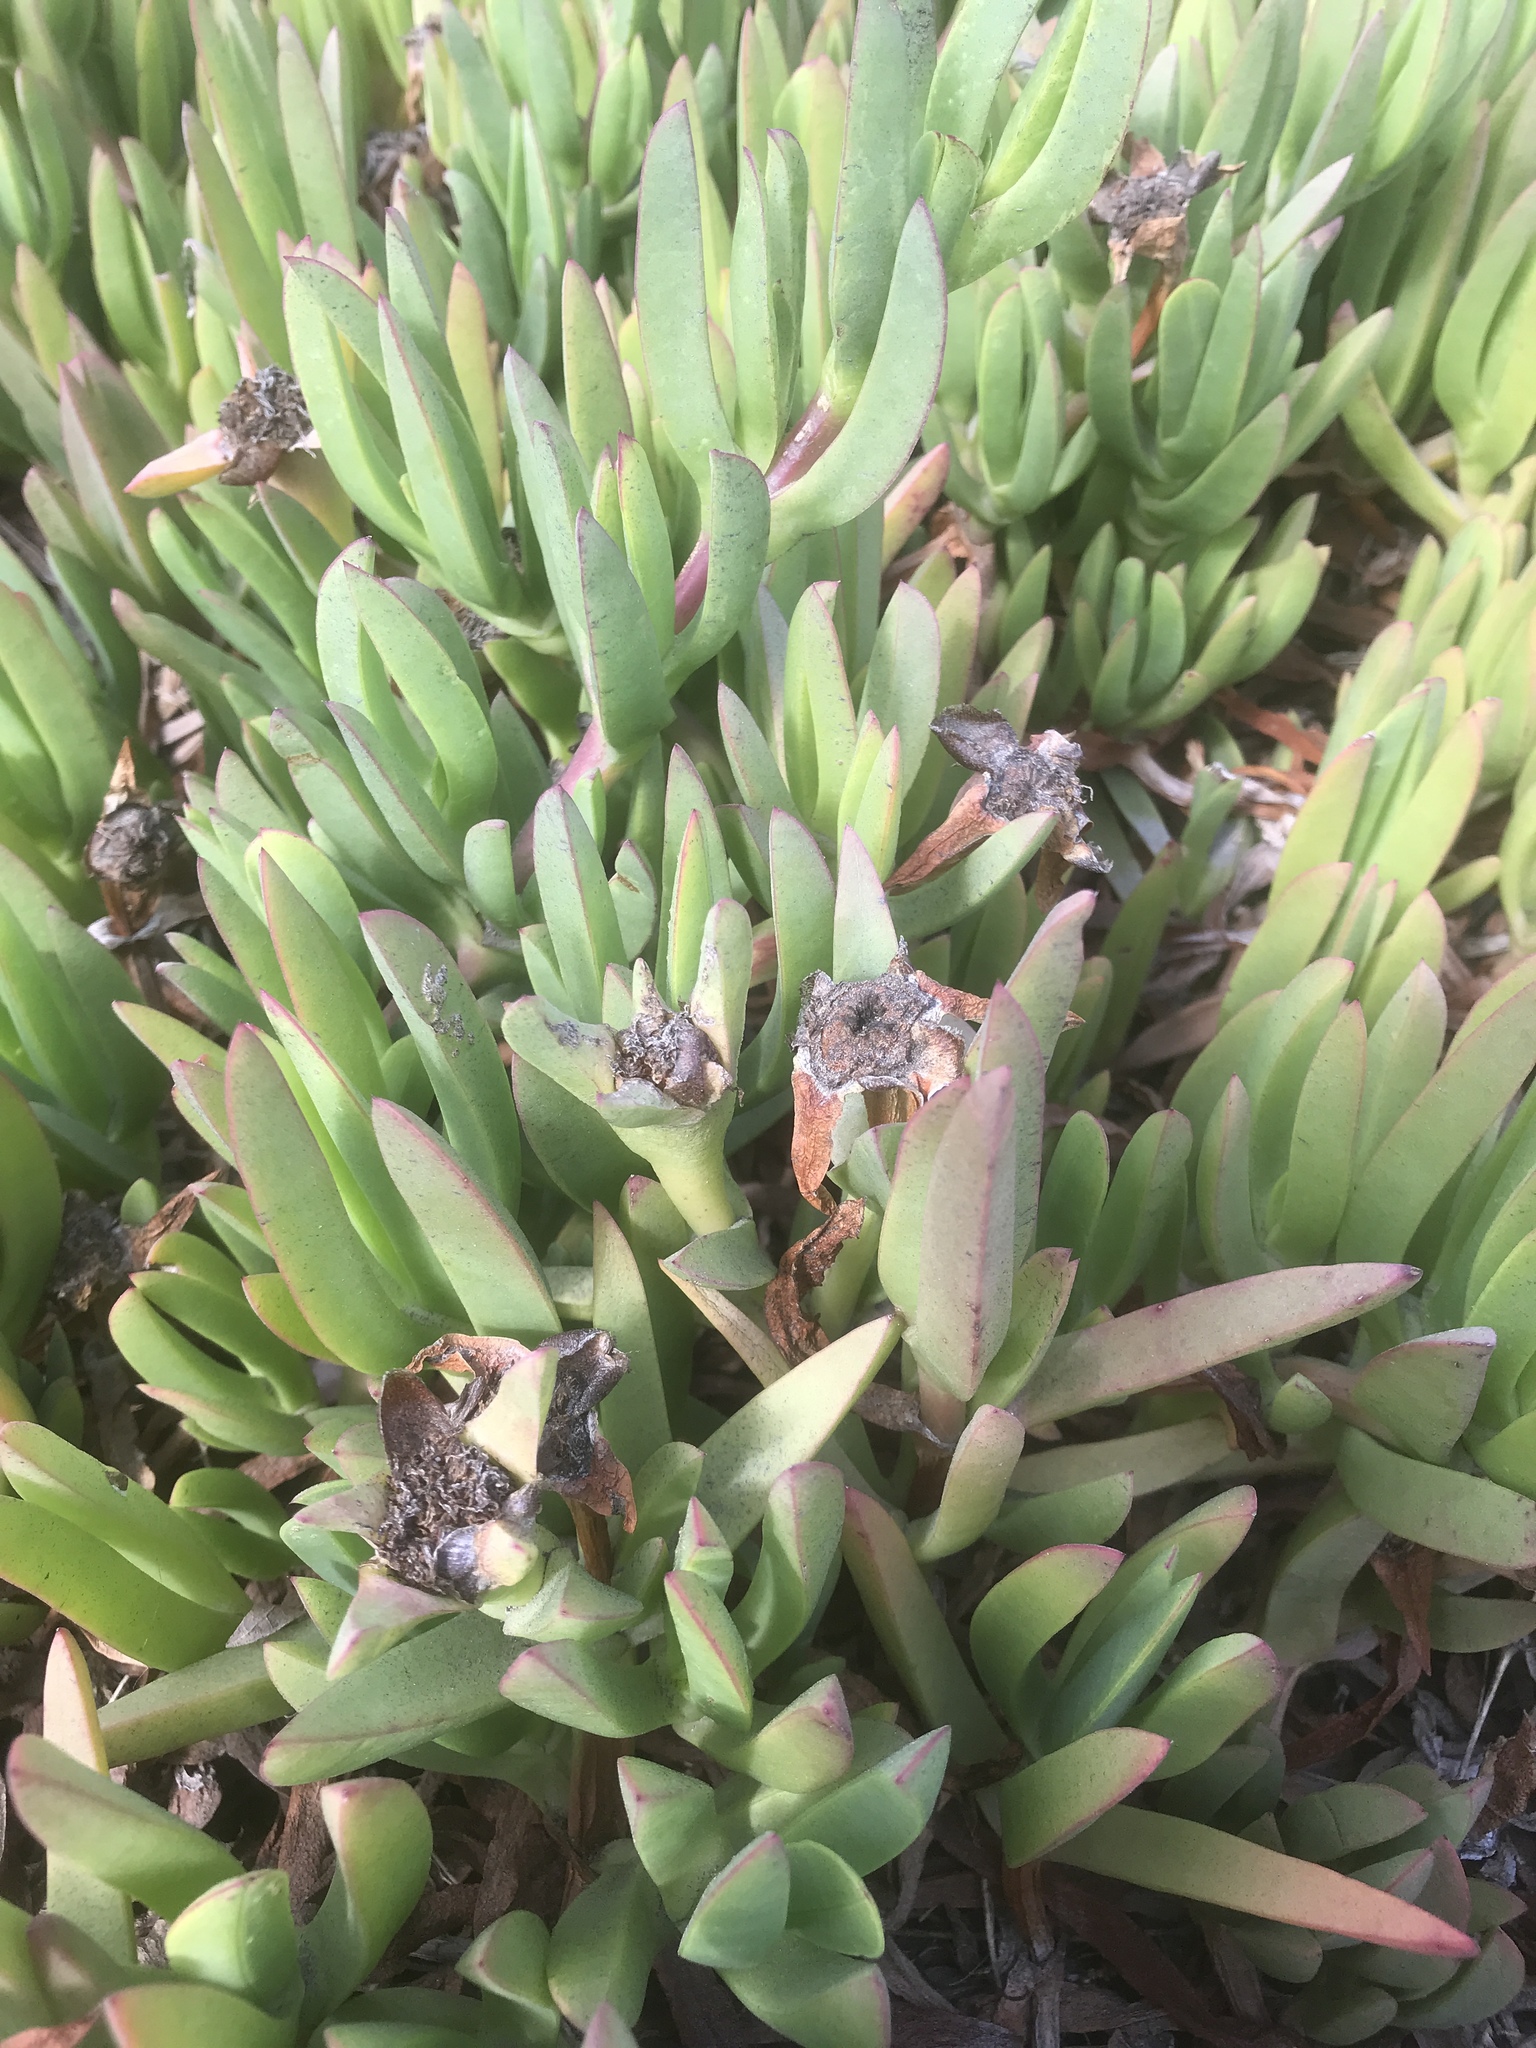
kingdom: Plantae
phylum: Tracheophyta
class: Magnoliopsida
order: Caryophyllales
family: Aizoaceae
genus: Carpobrotus
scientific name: Carpobrotus edulis
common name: Hottentot-fig
